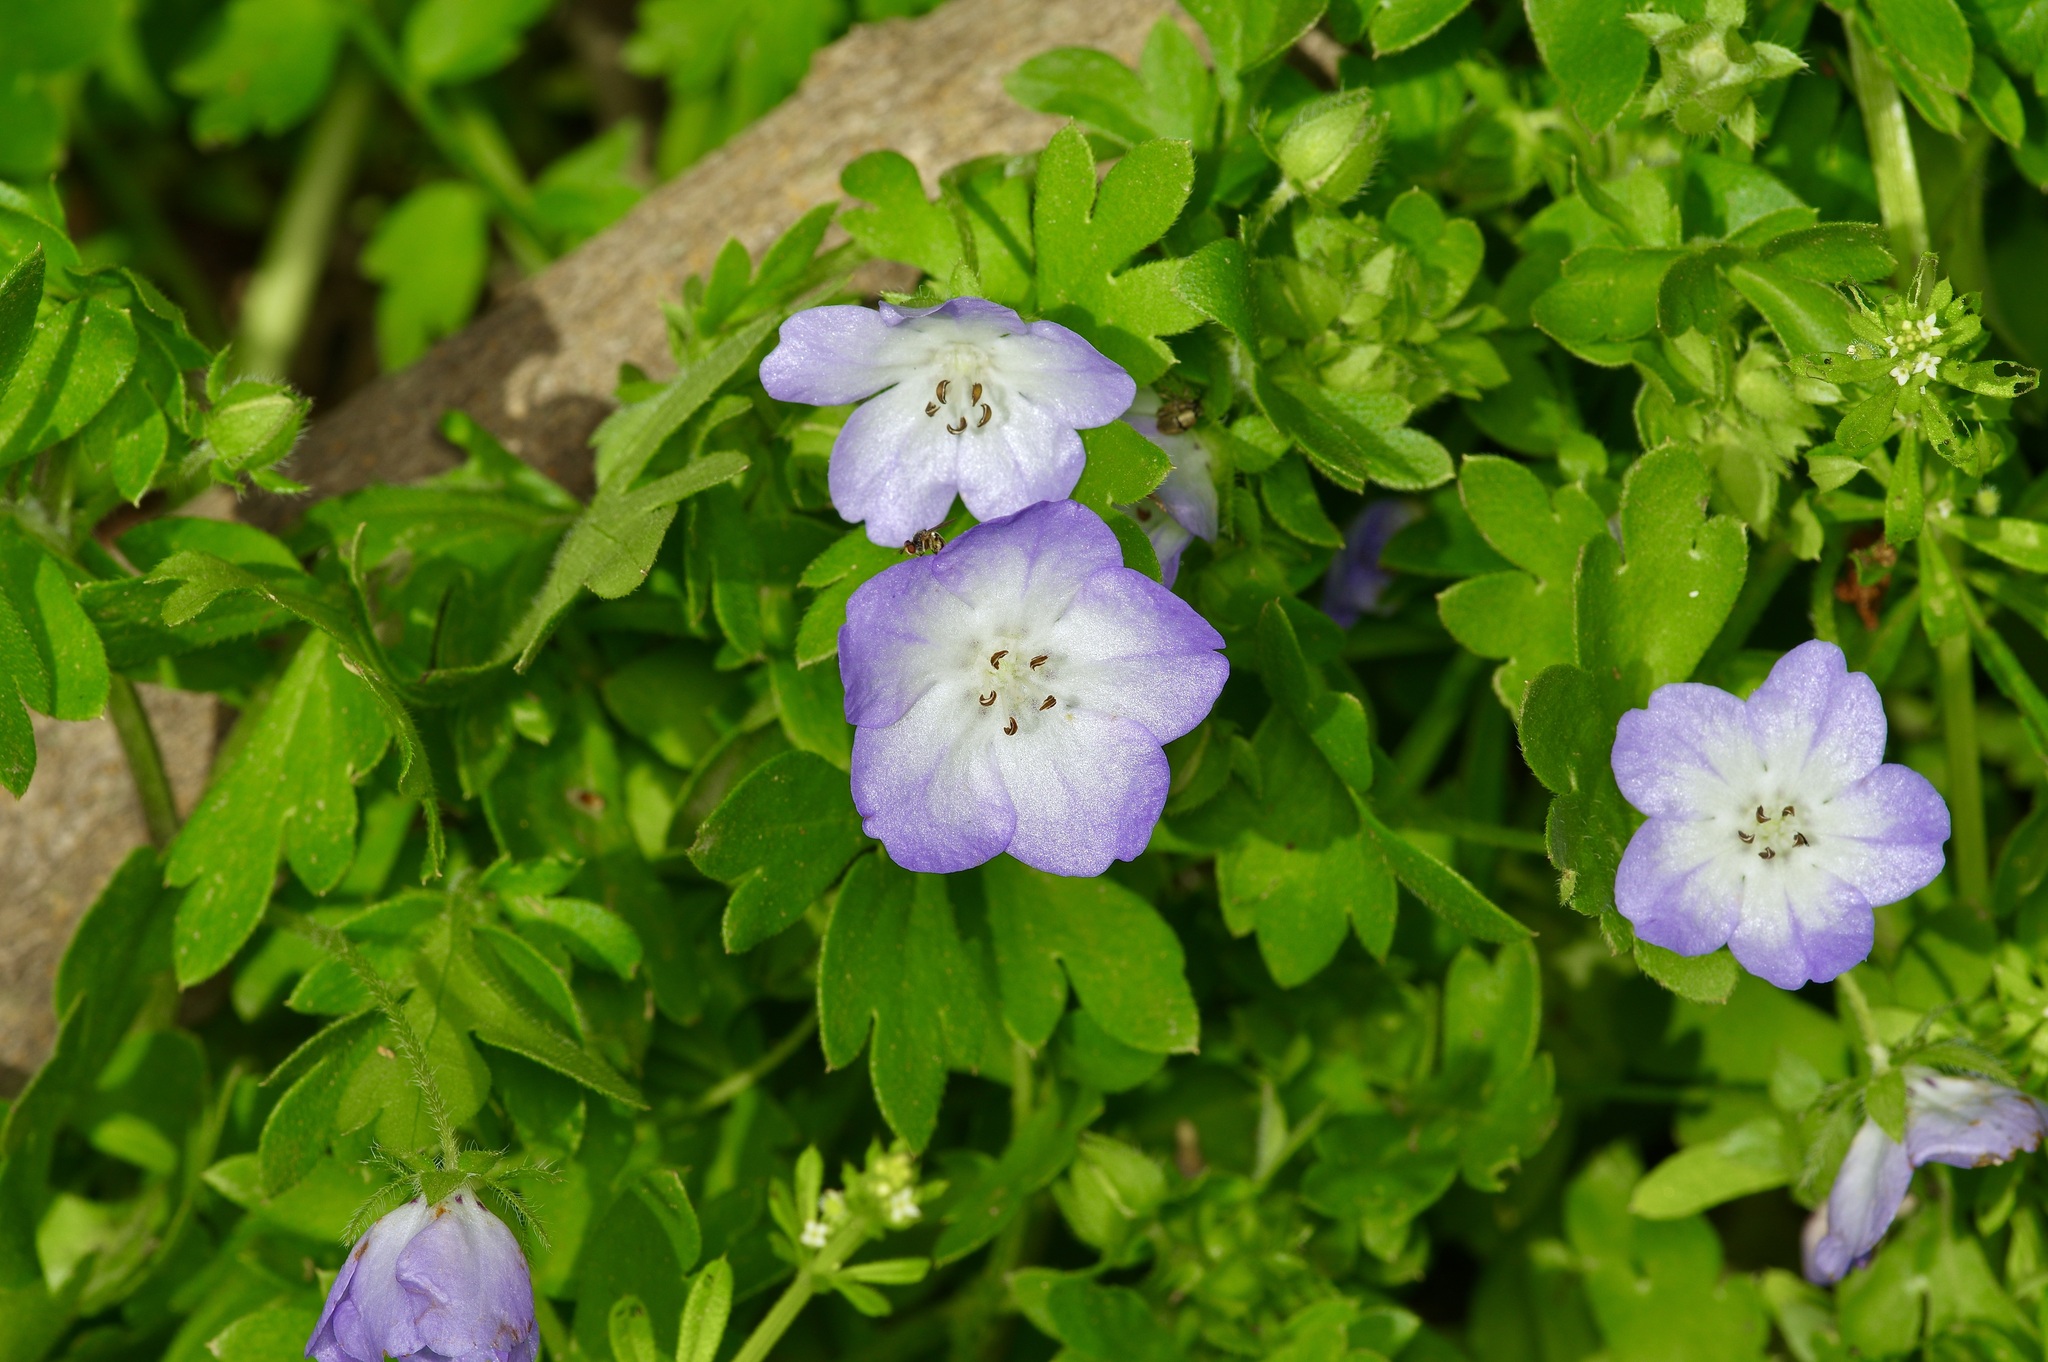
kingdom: Plantae
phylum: Tracheophyta
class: Magnoliopsida
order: Boraginales
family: Hydrophyllaceae
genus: Nemophila
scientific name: Nemophila phacelioides
